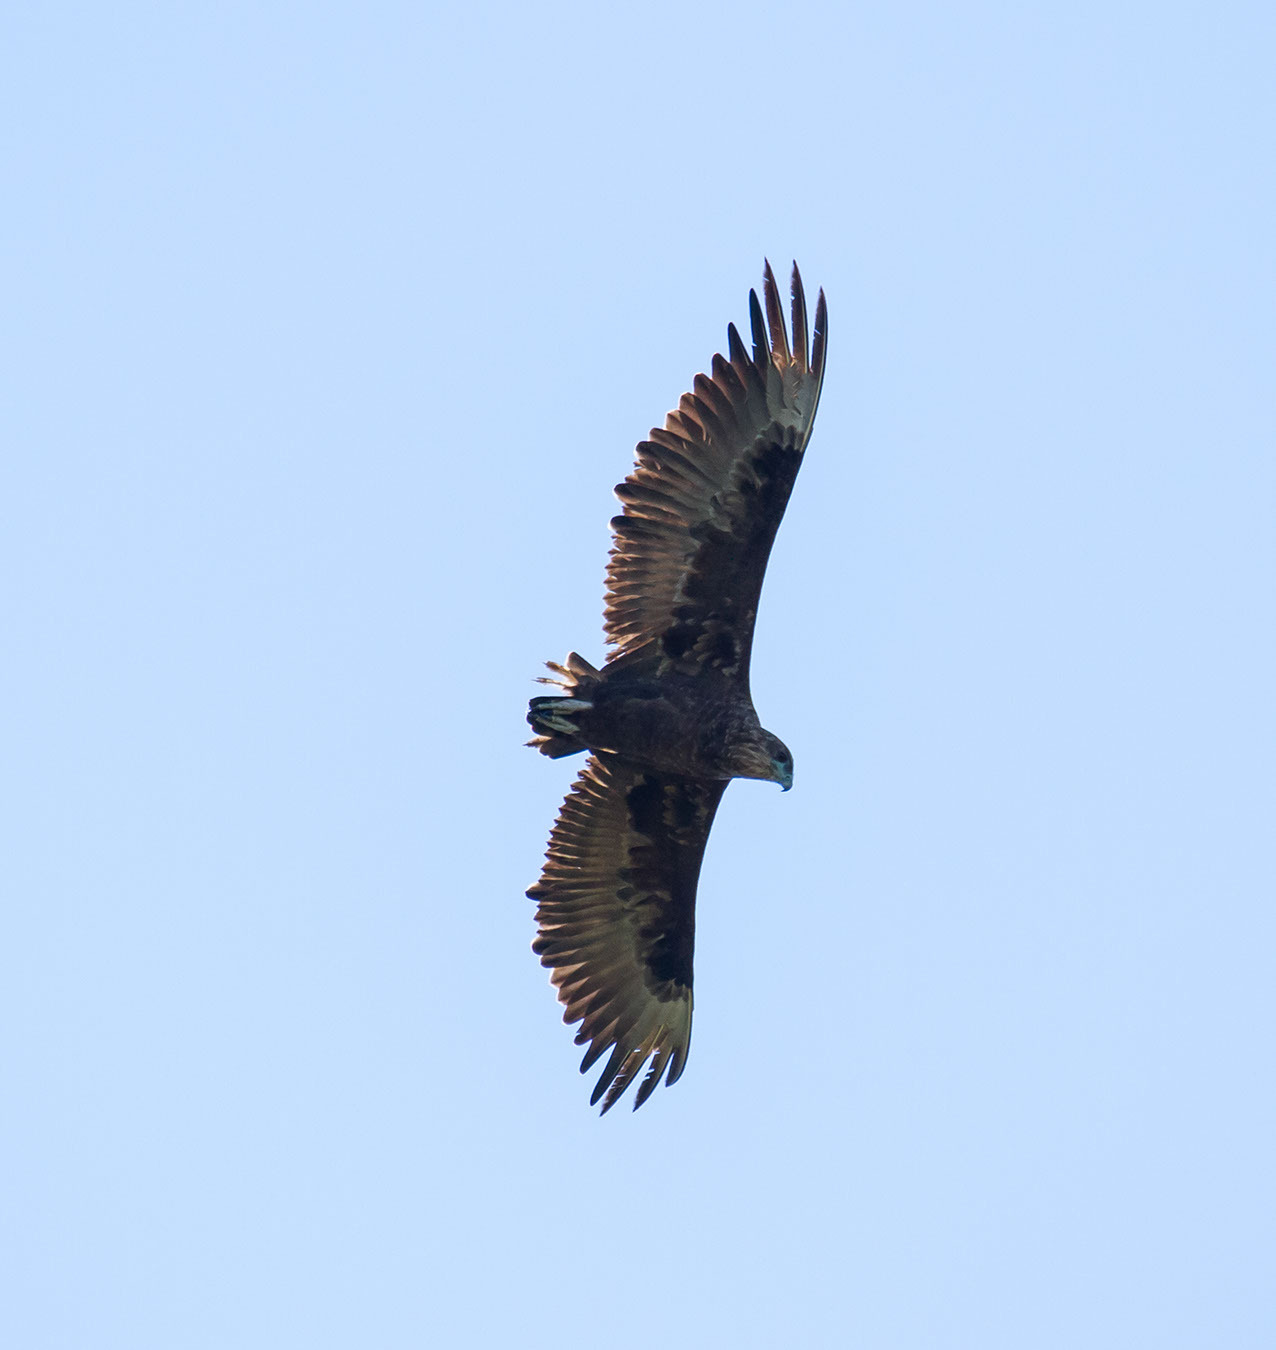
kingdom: Animalia
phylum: Chordata
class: Aves
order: Accipitriformes
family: Accipitridae
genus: Terathopius
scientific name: Terathopius ecaudatus
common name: Bateleur
